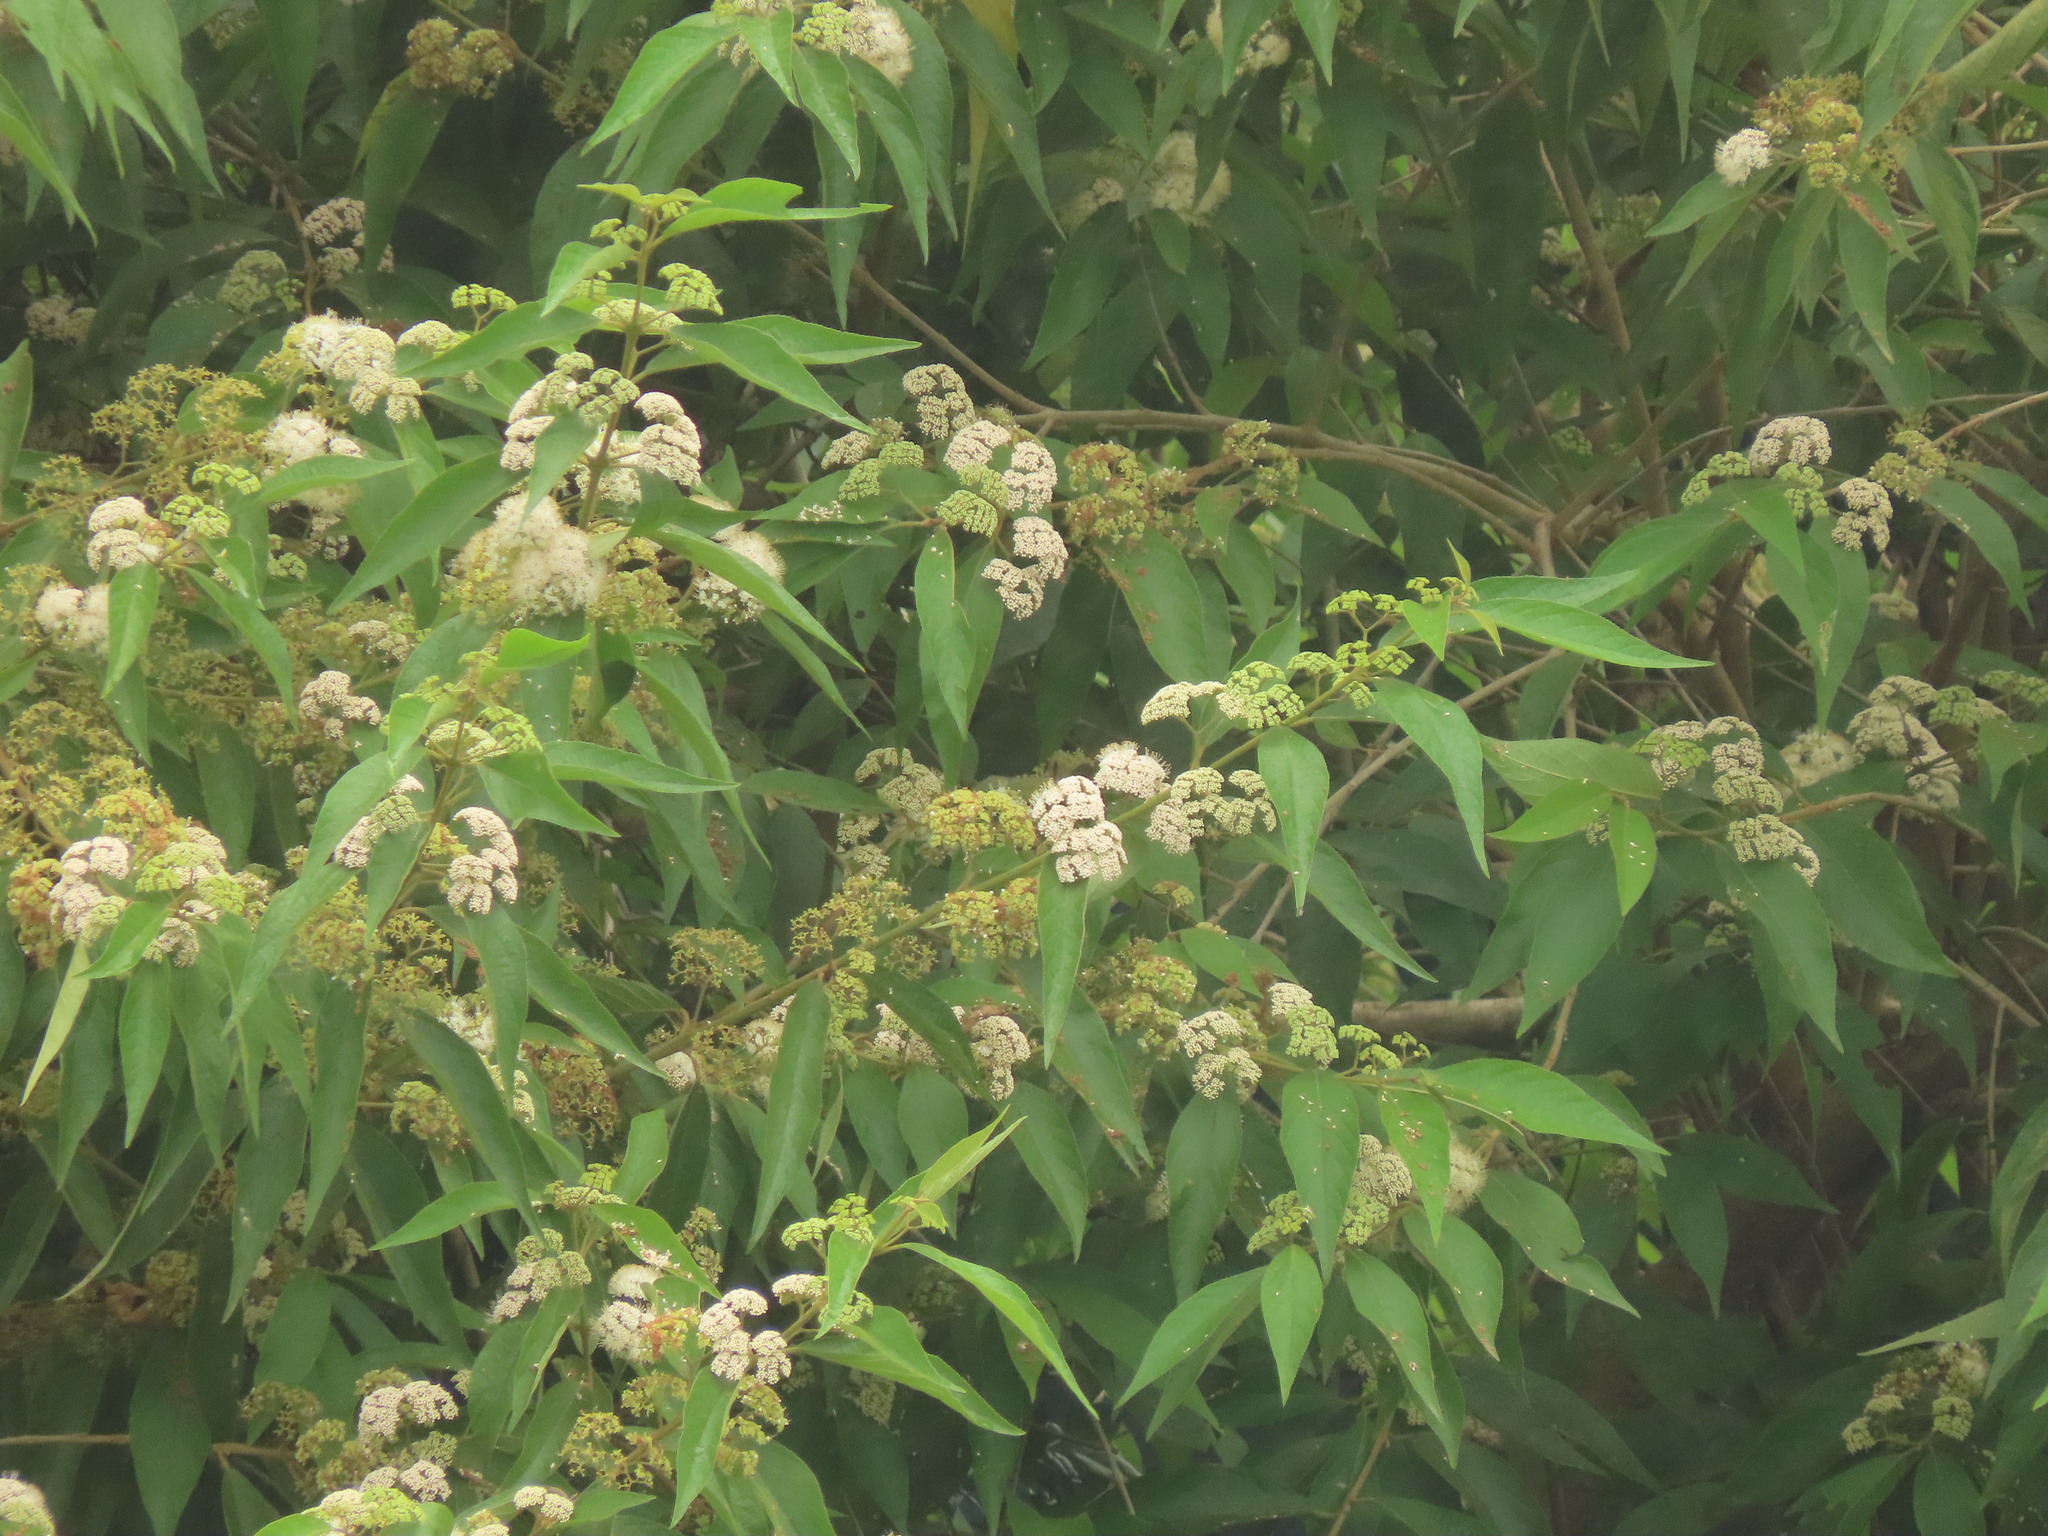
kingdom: Plantae
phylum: Tracheophyta
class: Magnoliopsida
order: Lamiales
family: Lamiaceae
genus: Callicarpa
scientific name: Callicarpa pedunculata
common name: Velvetleaf
